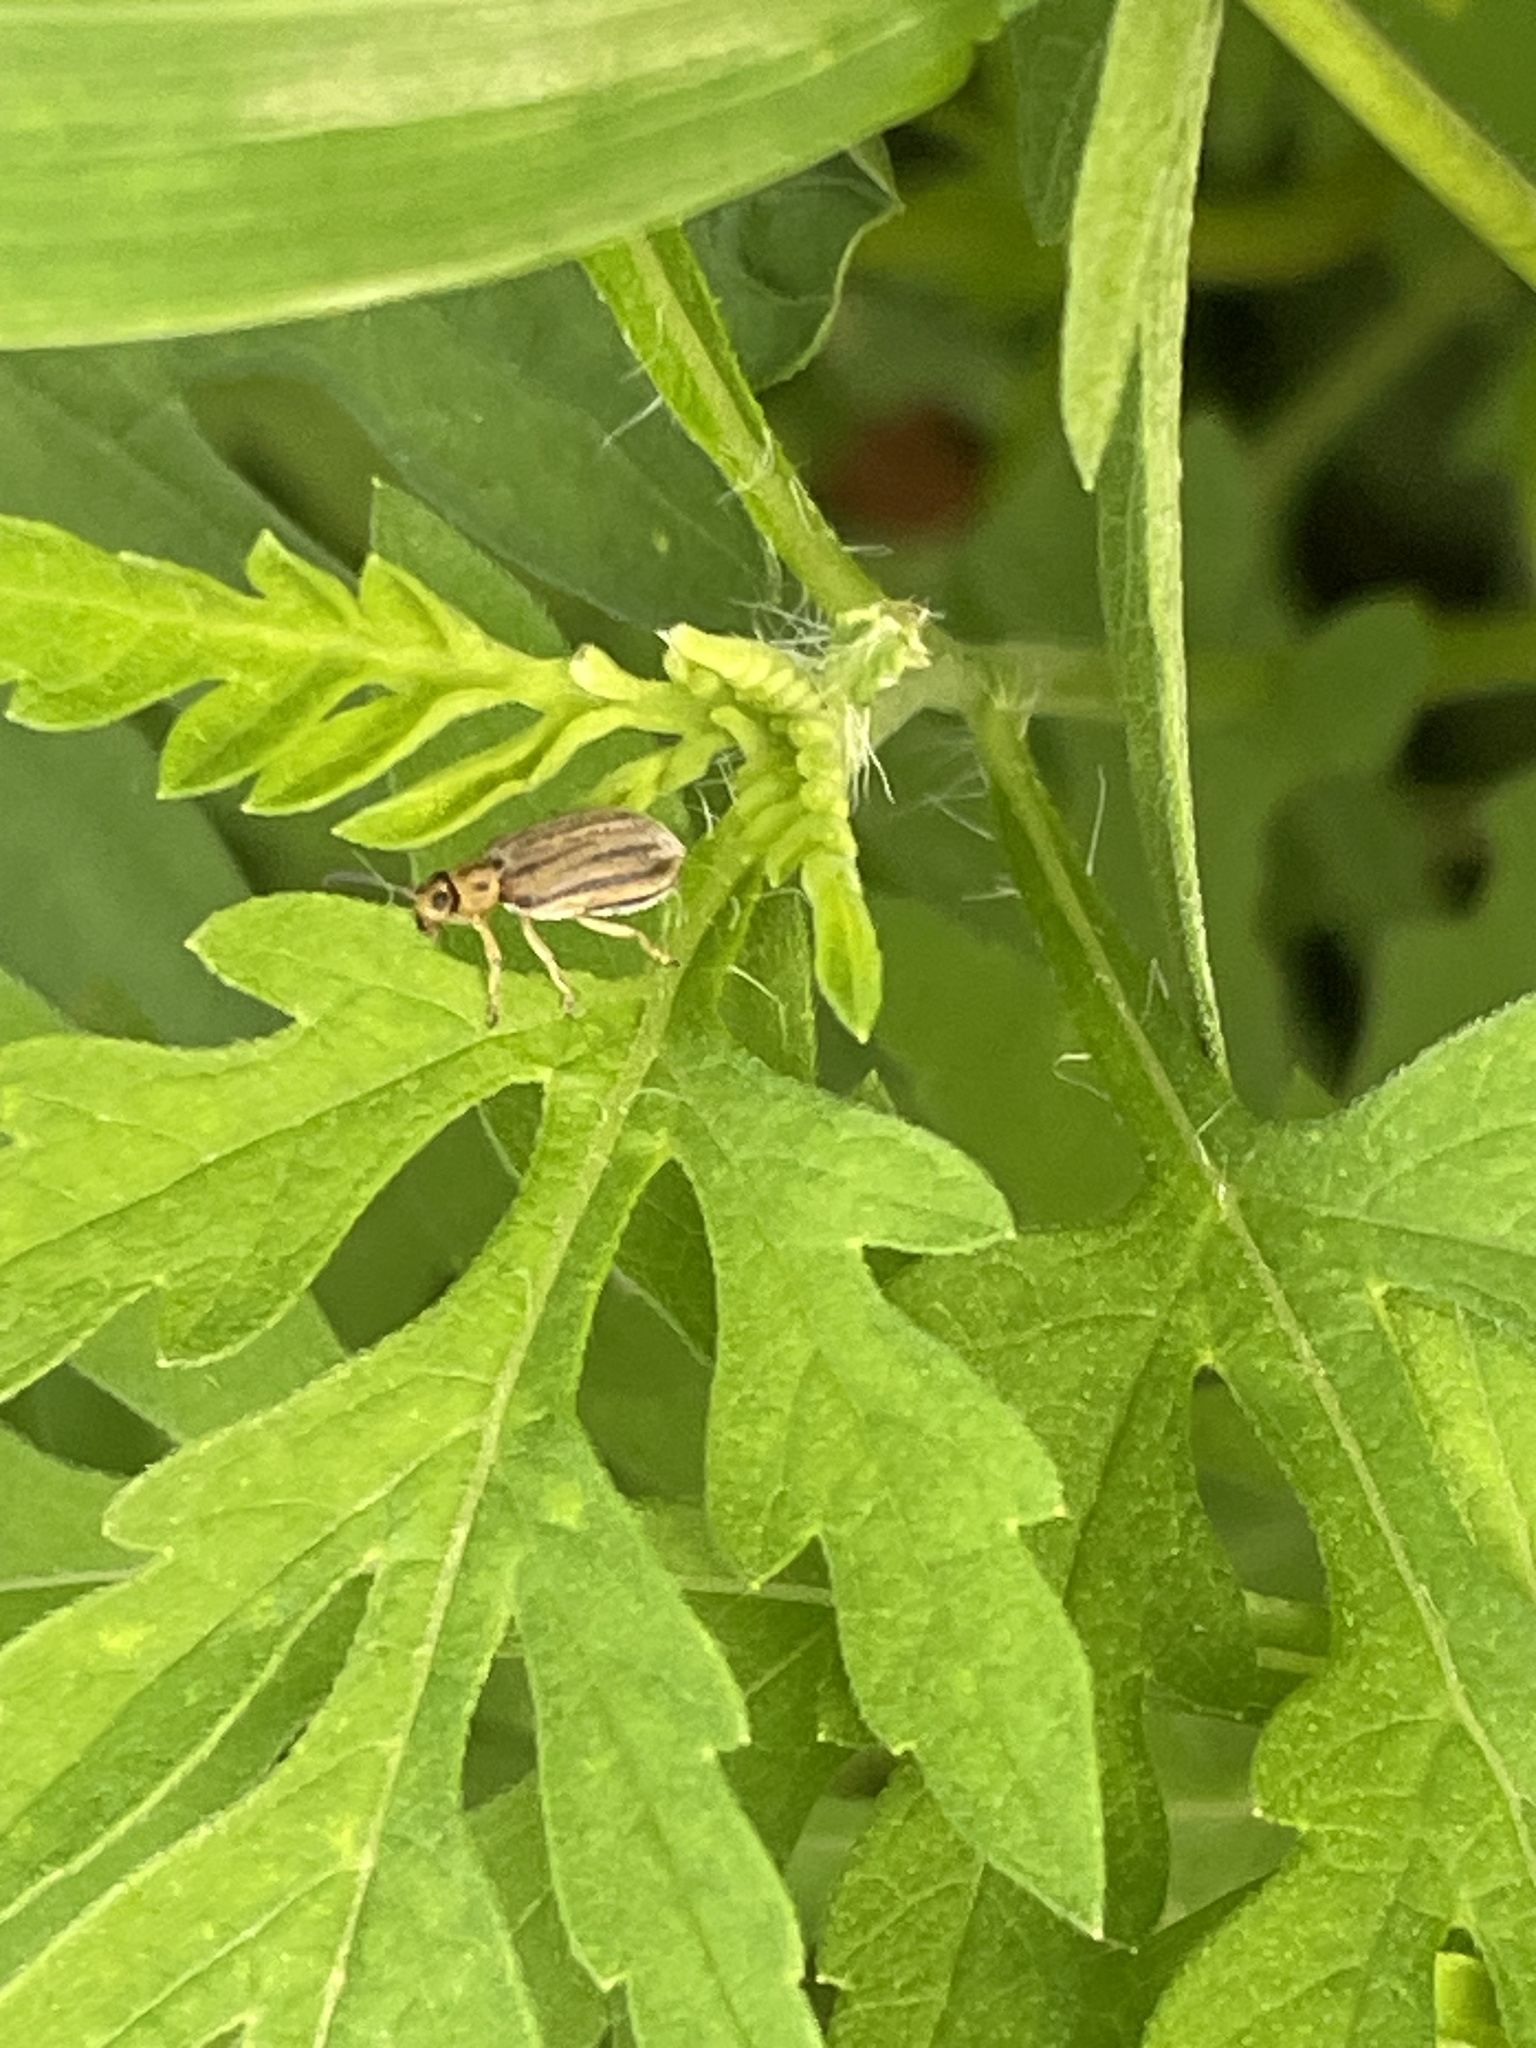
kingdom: Animalia
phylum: Arthropoda
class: Insecta
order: Coleoptera
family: Chrysomelidae
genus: Ophraella
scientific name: Ophraella communa
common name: Ragweed leaf beetle
